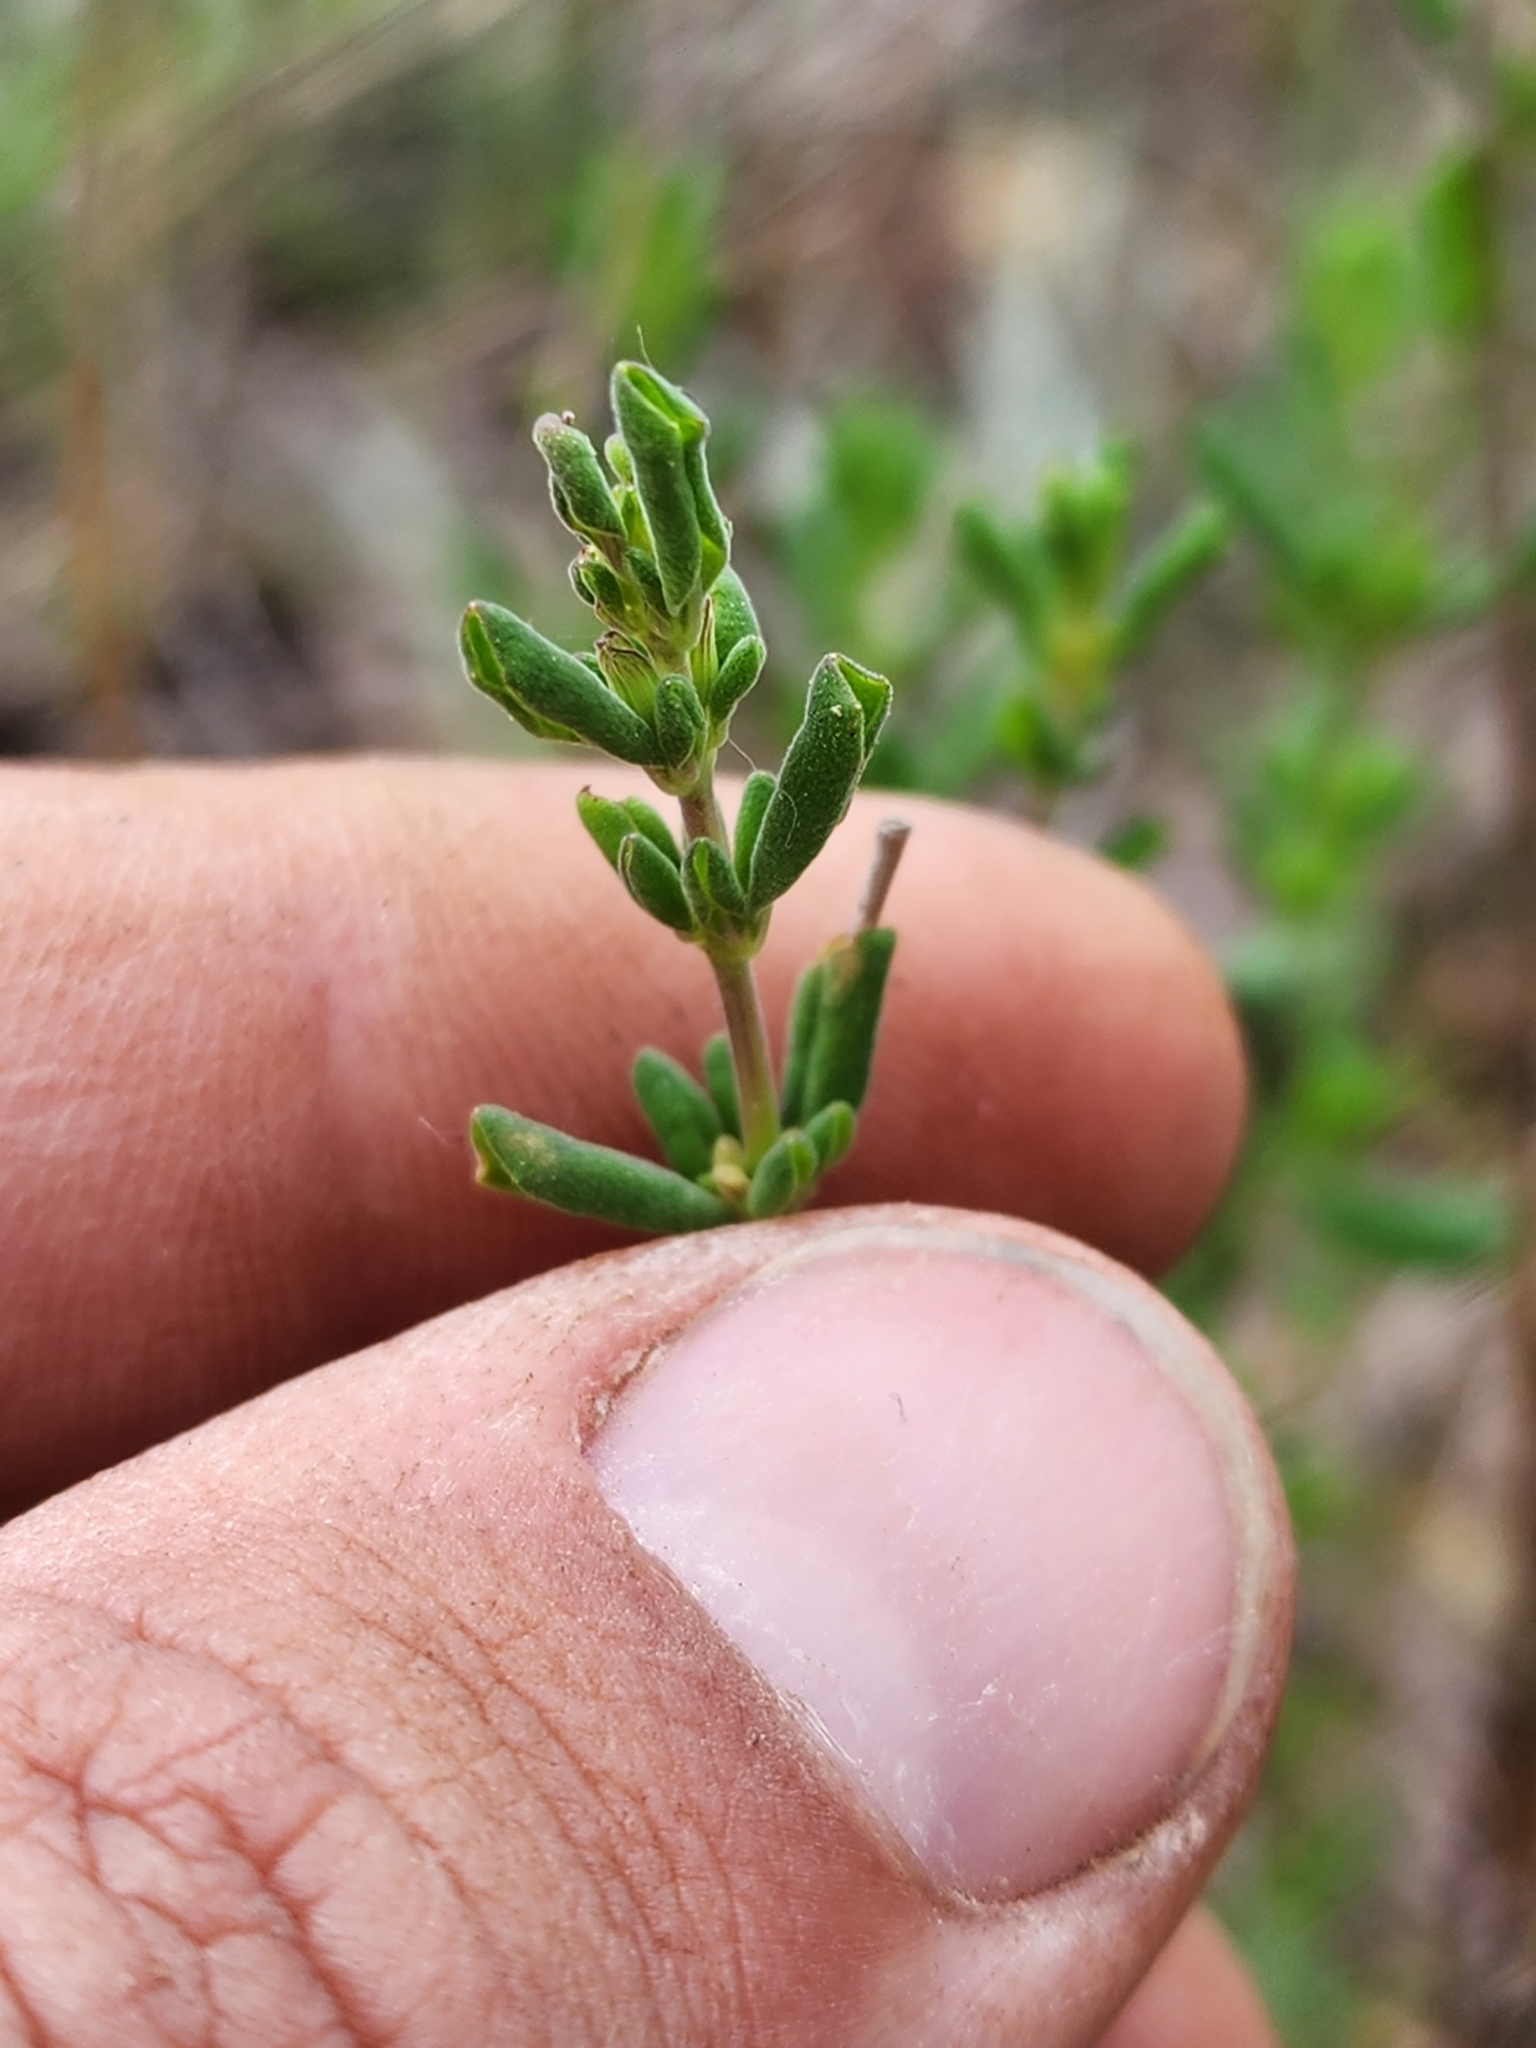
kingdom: Plantae
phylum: Tracheophyta
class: Magnoliopsida
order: Lamiales
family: Lamiaceae
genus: Clinopodium
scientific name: Clinopodium dentatum
